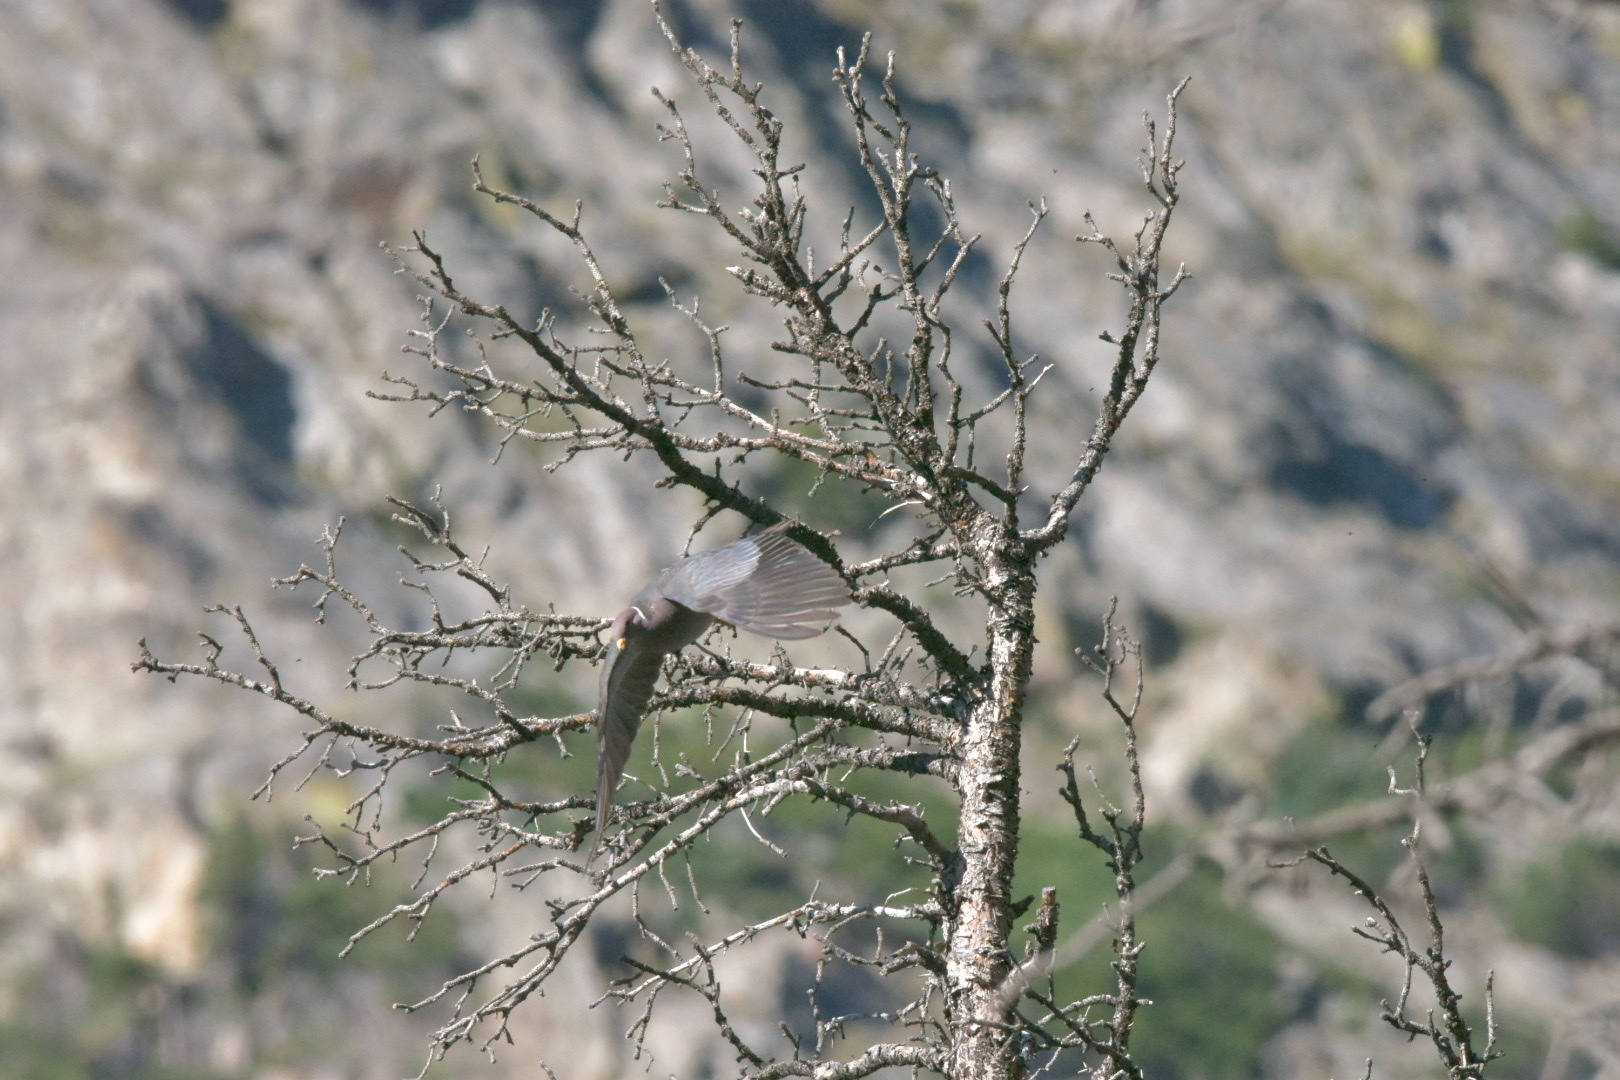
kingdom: Animalia
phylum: Chordata
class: Aves
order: Columbiformes
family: Columbidae
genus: Patagioenas
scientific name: Patagioenas fasciata
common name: Band-tailed pigeon
